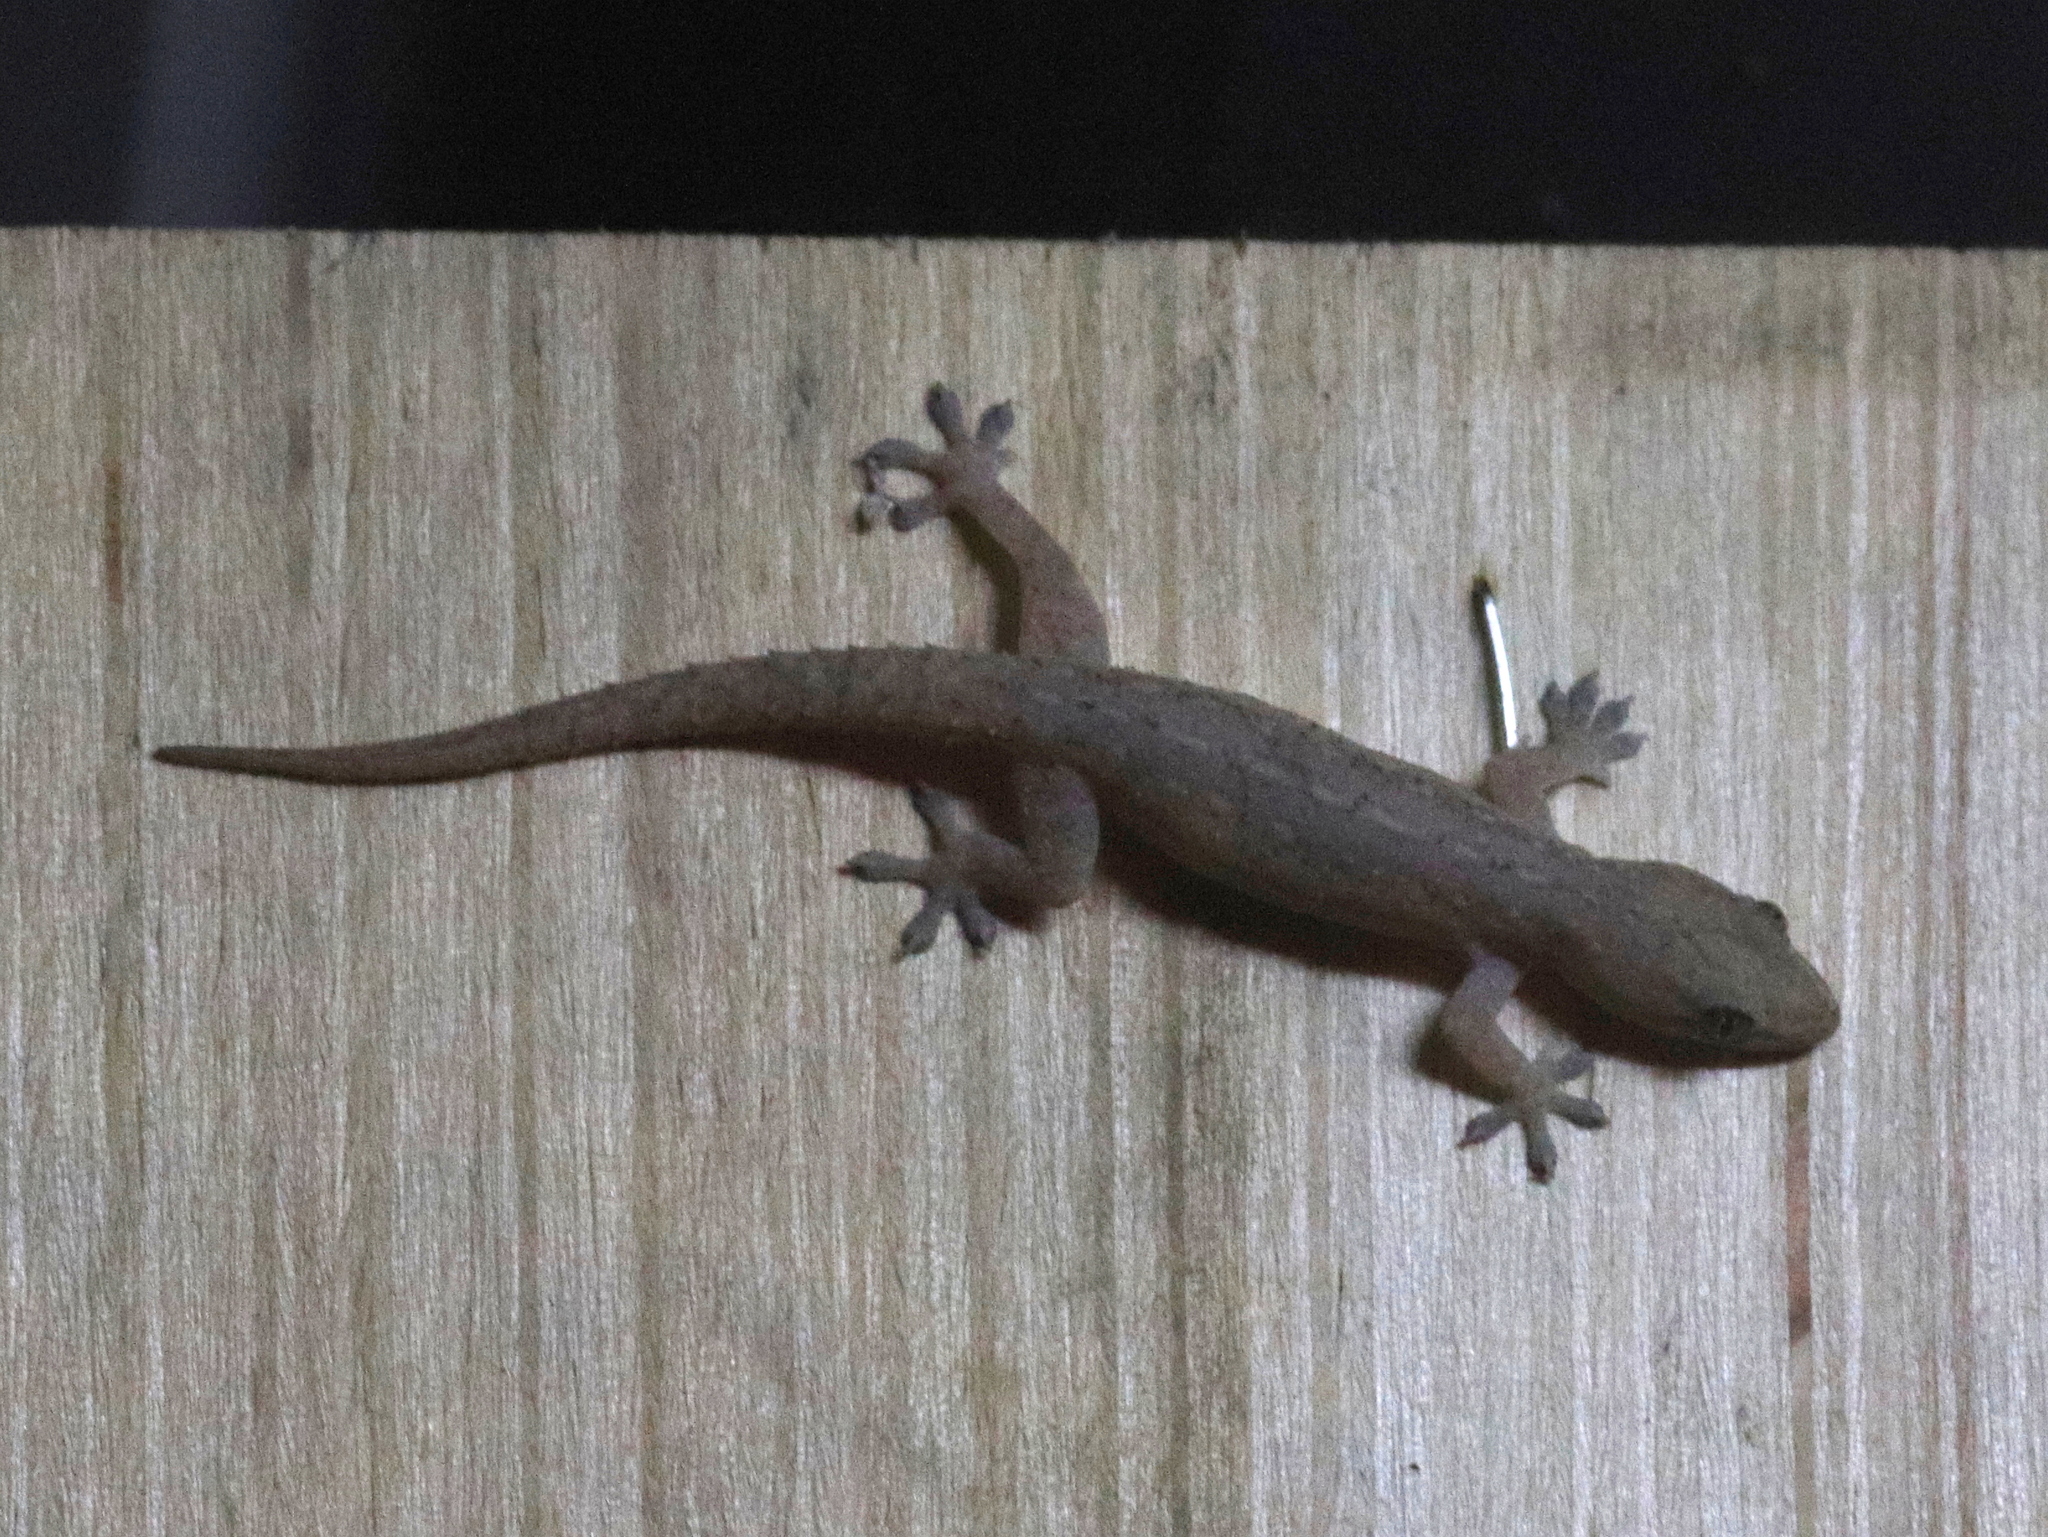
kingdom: Animalia
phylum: Chordata
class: Squamata
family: Gekkonidae
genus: Hemidactylus
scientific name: Hemidactylus frenatus
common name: Common house gecko
